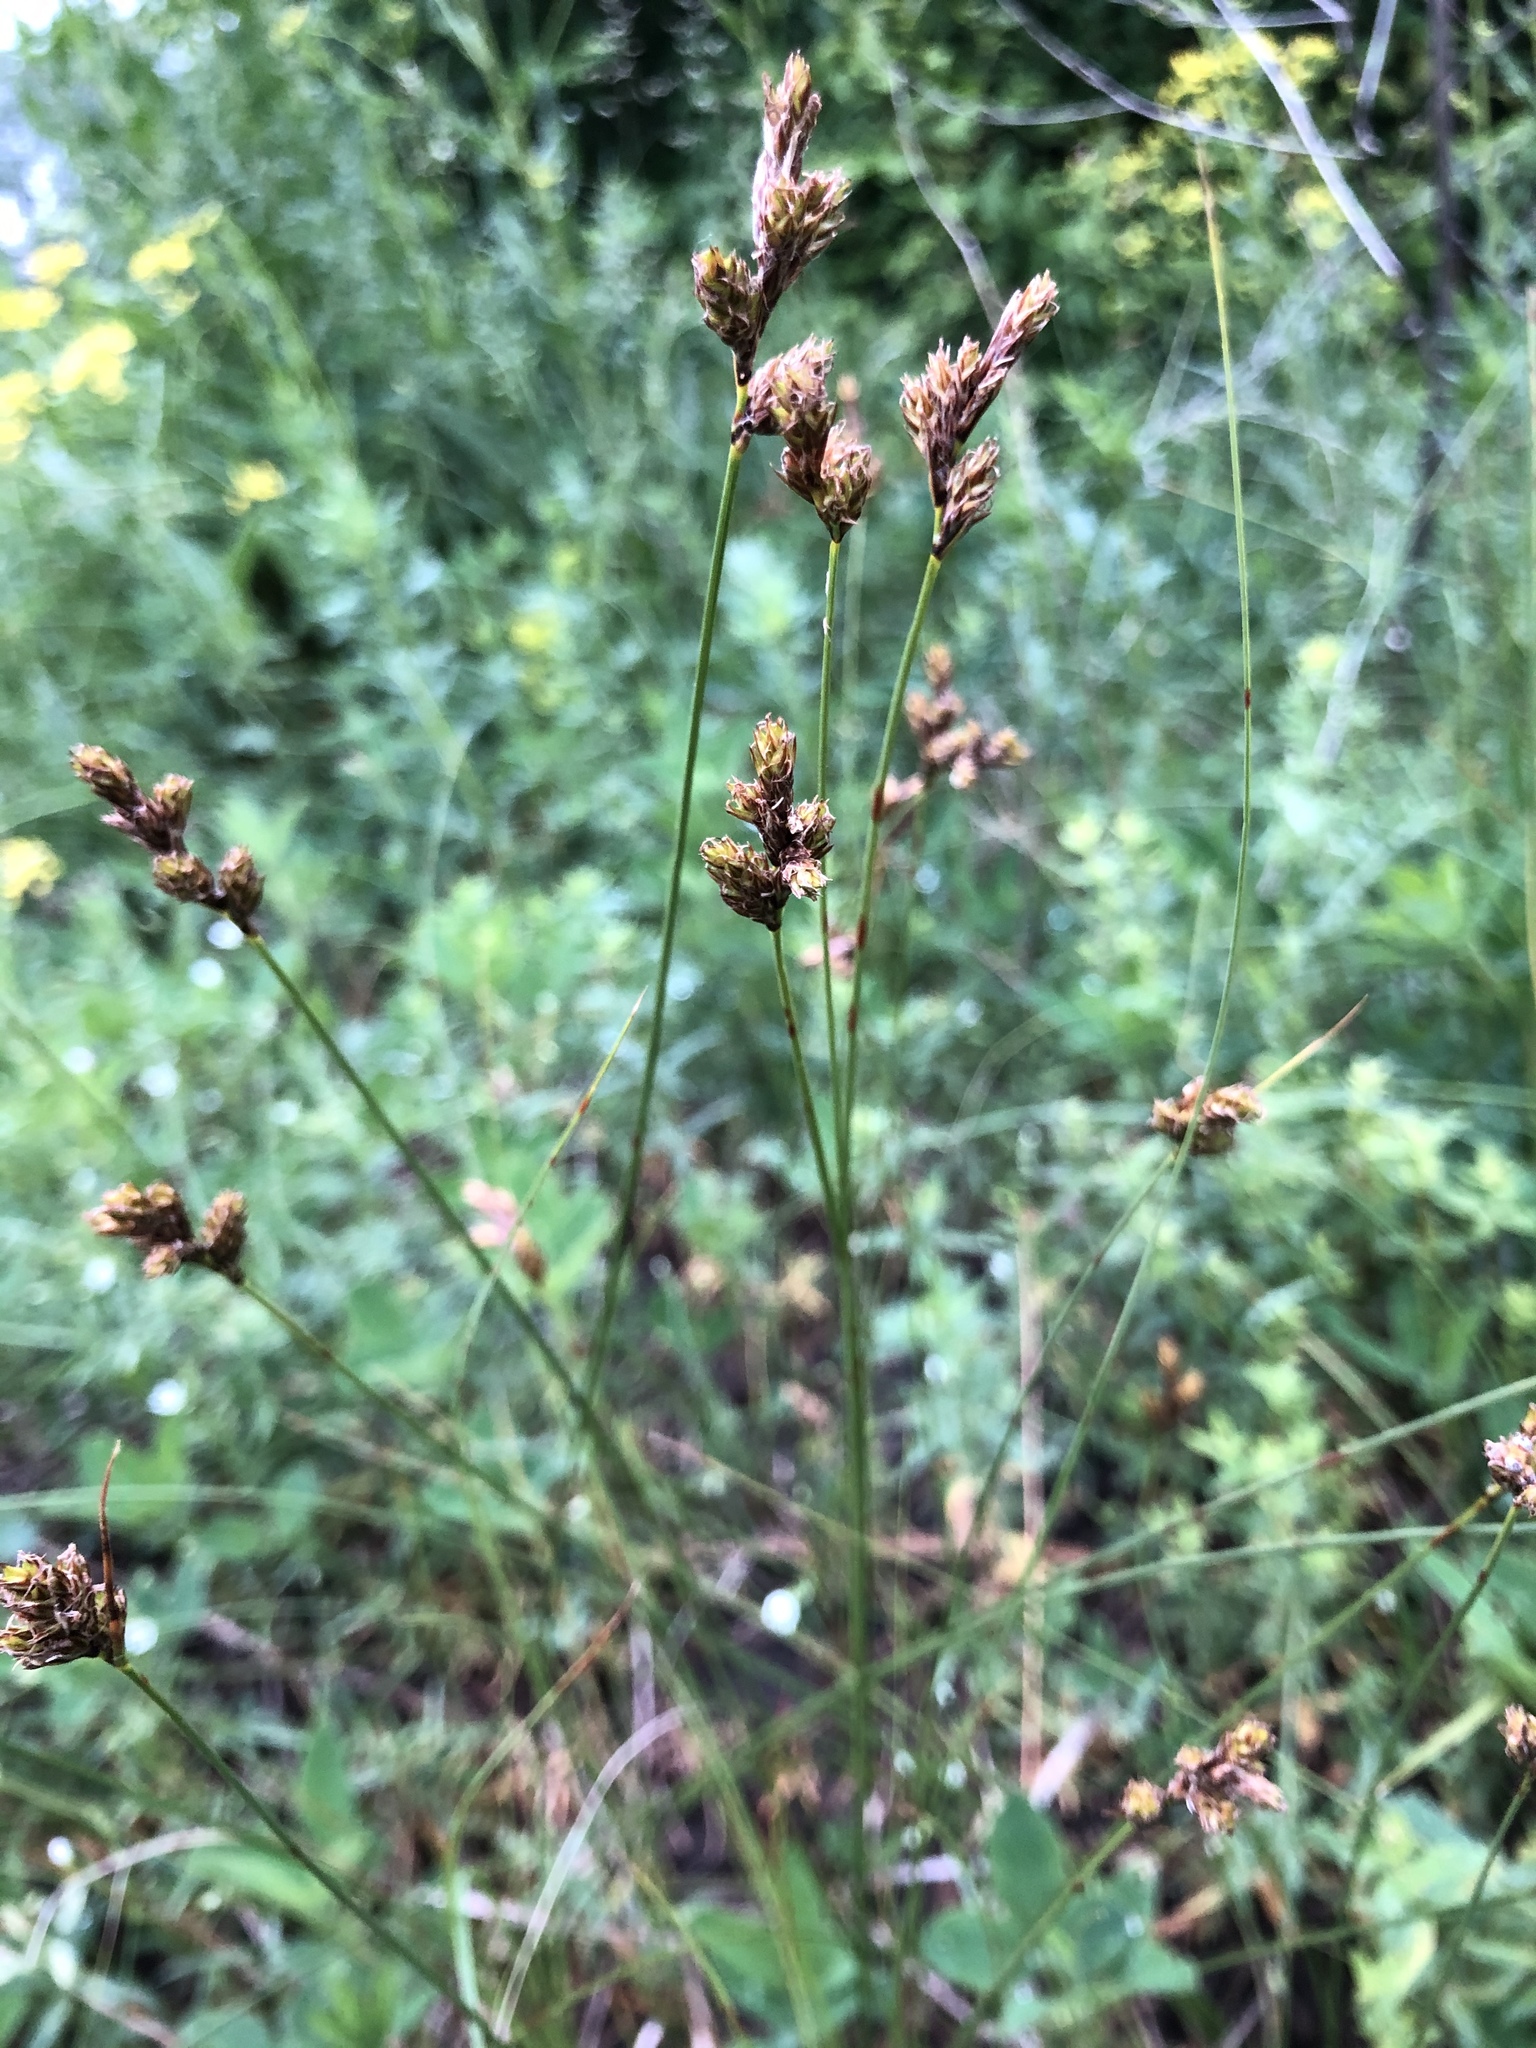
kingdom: Plantae
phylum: Tracheophyta
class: Liliopsida
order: Poales
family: Cyperaceae
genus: Carex
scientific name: Carex praecox
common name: Early sedge
